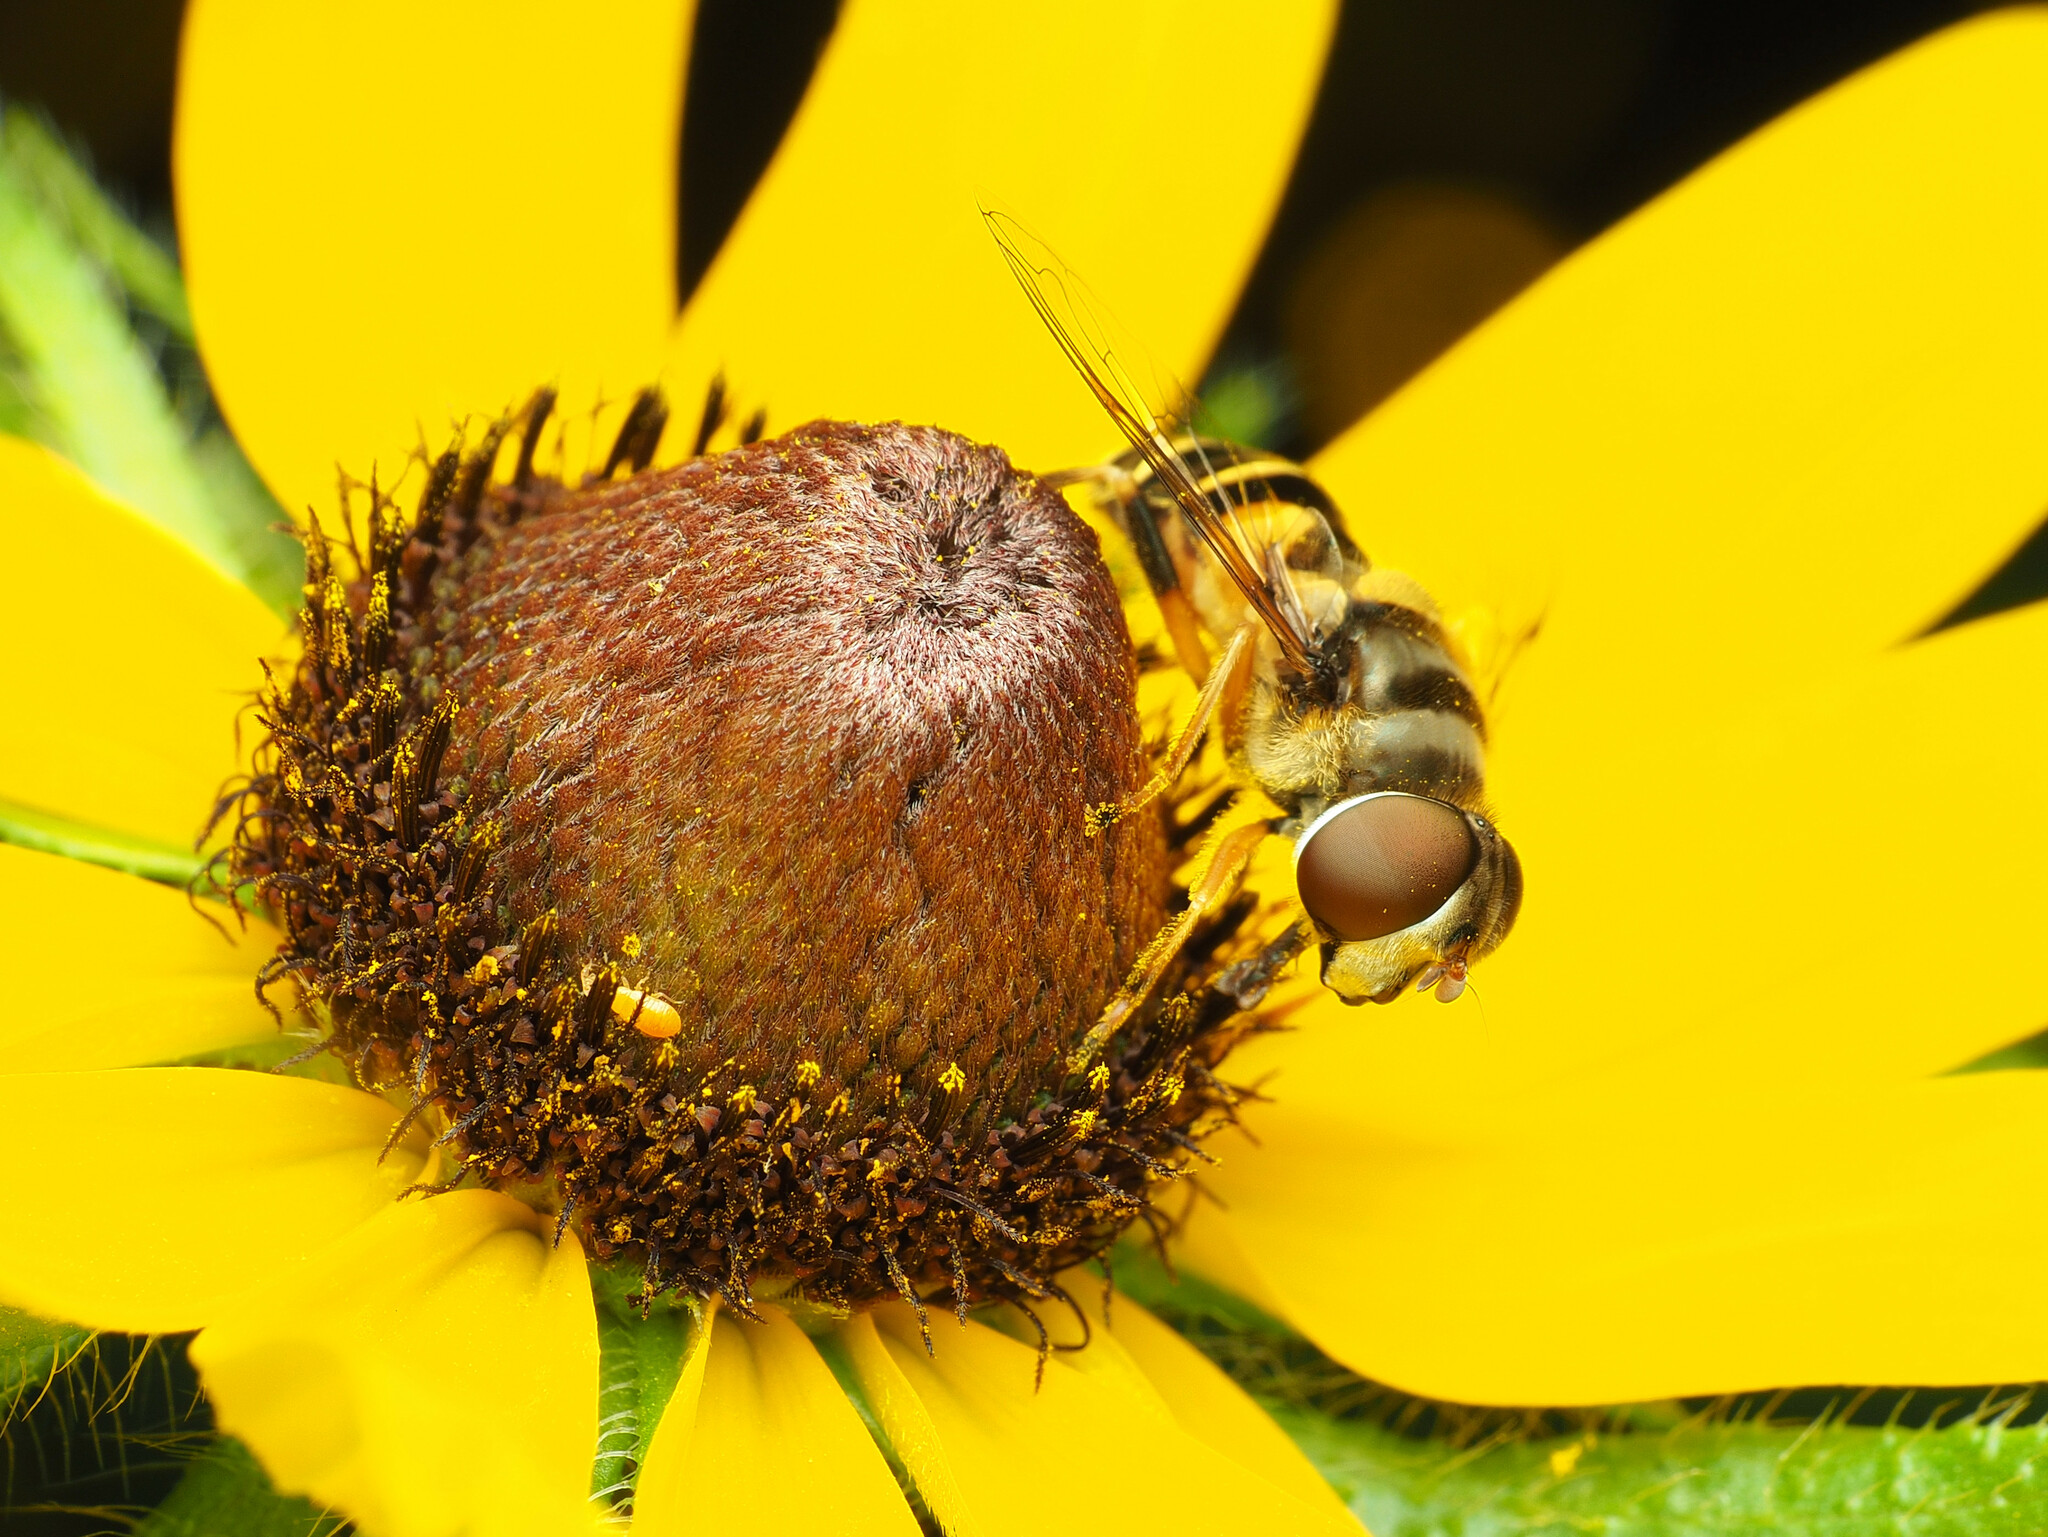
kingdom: Animalia
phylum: Arthropoda
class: Insecta
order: Diptera
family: Syrphidae
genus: Eristalis
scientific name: Eristalis transversa
